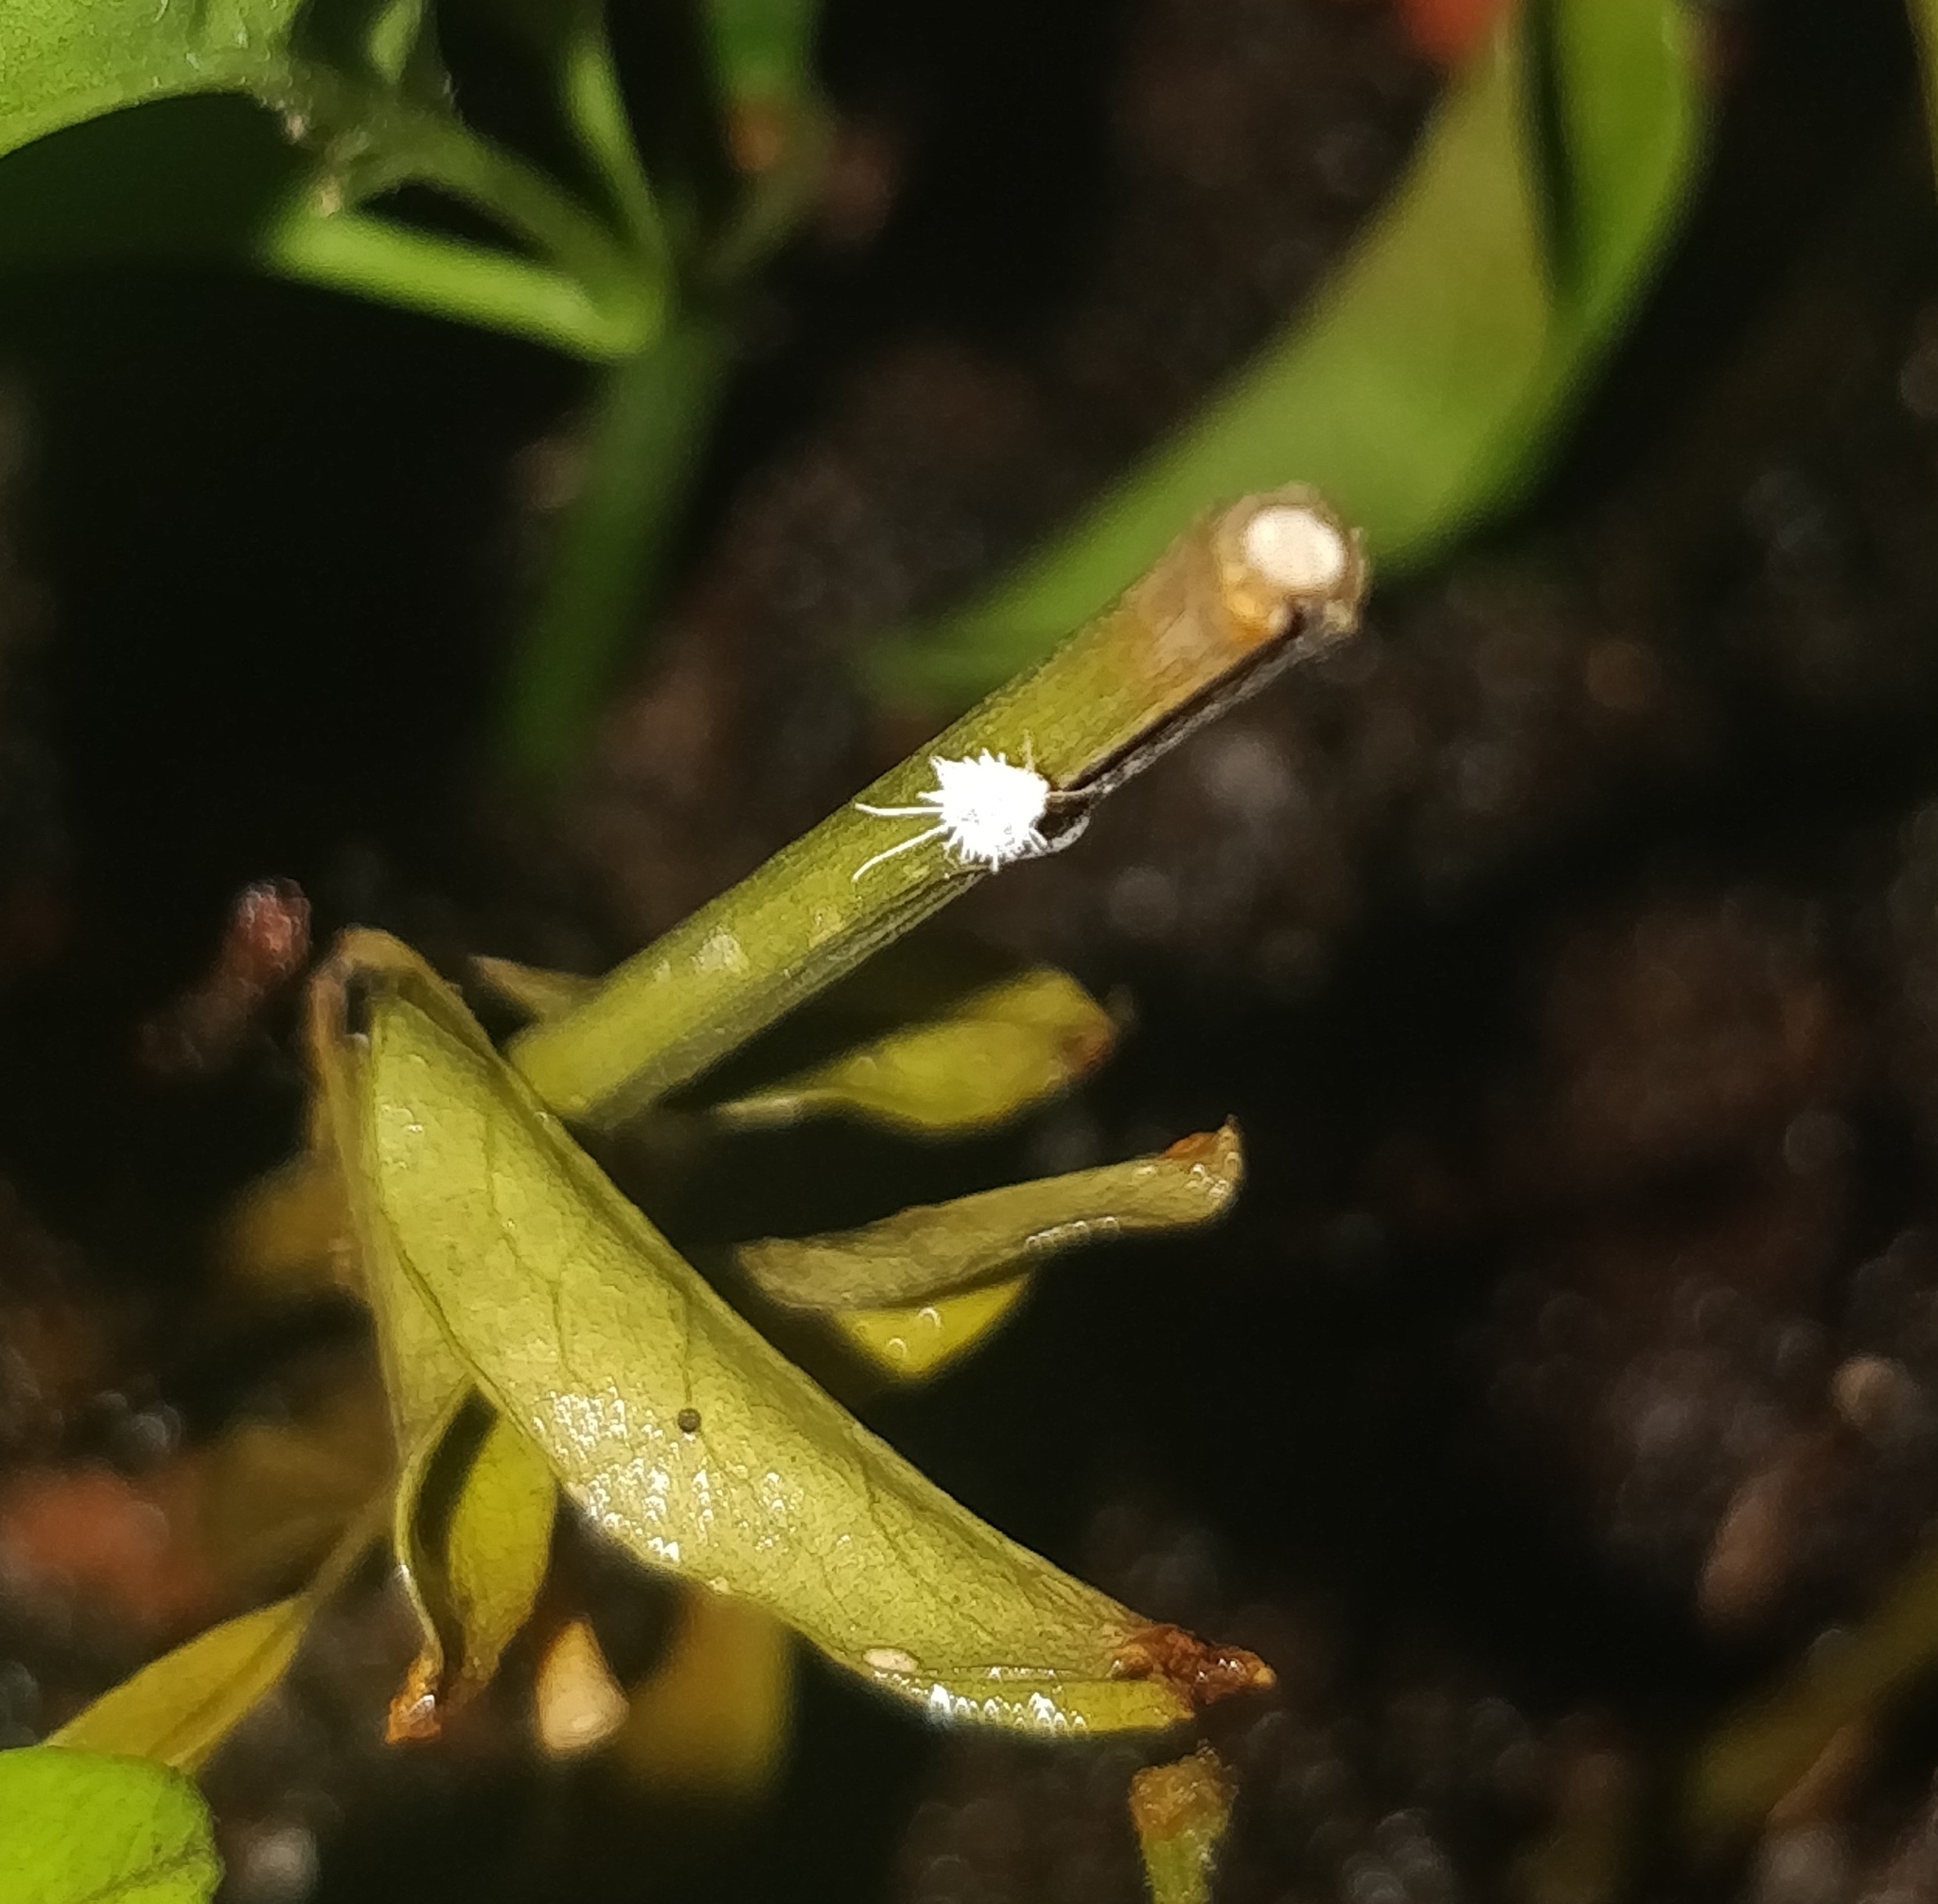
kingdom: Animalia
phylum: Arthropoda
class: Insecta
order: Hemiptera
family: Pseudococcidae
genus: Pseudococcus
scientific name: Pseudococcus longispinus
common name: Long-tailed mealybug
